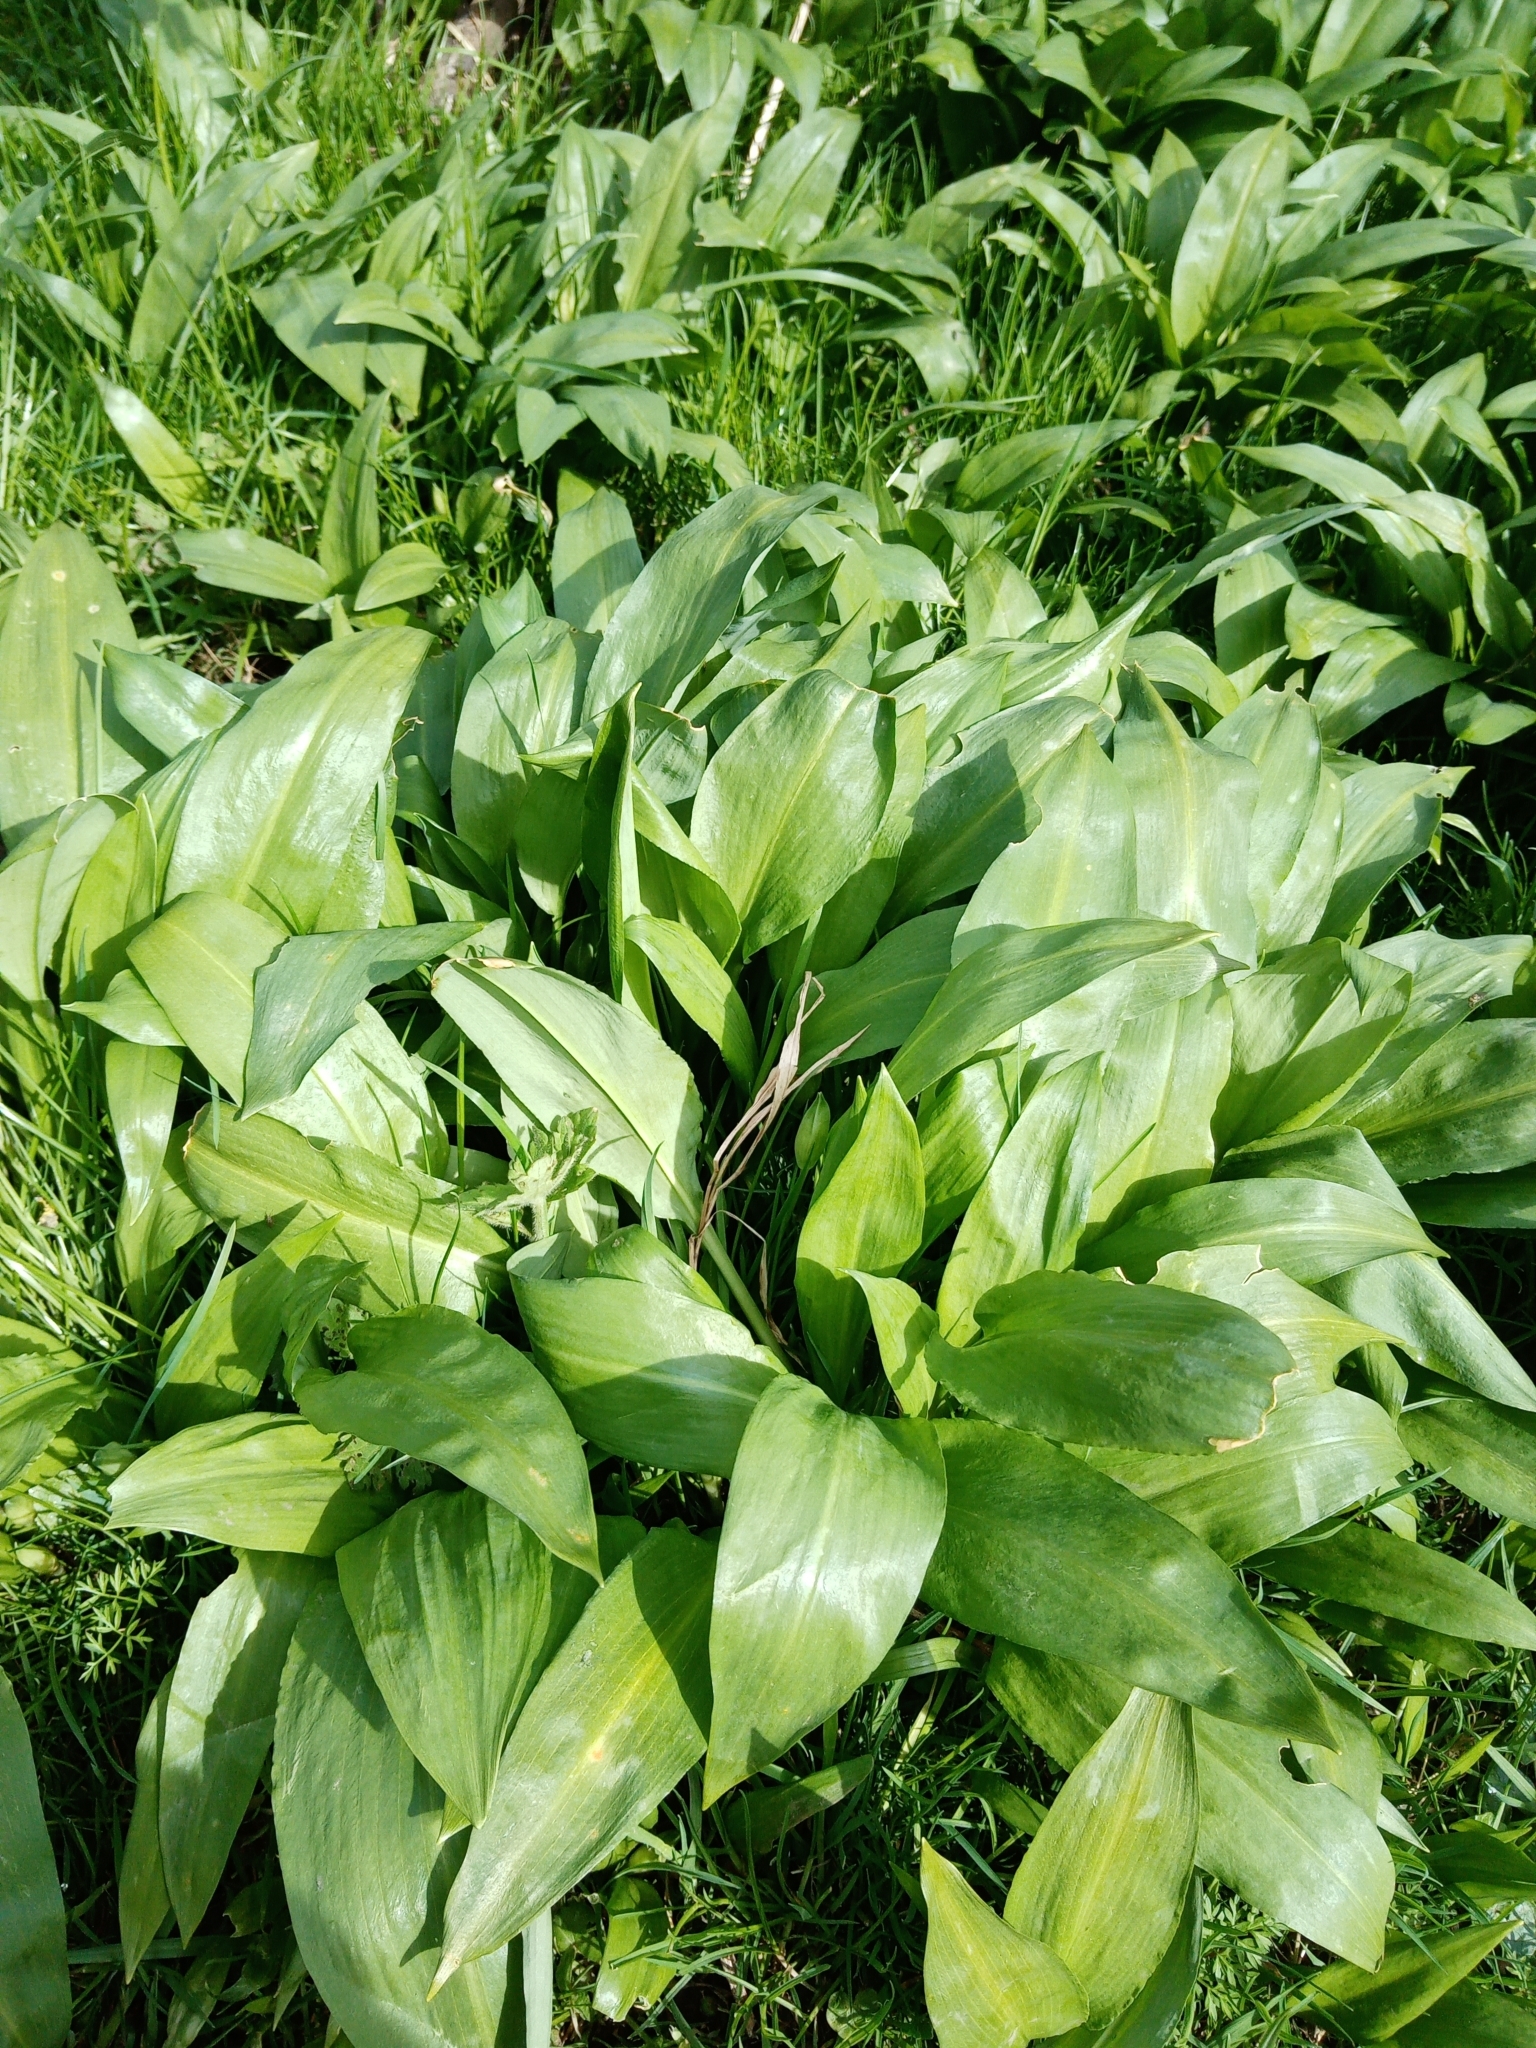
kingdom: Plantae
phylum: Tracheophyta
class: Liliopsida
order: Asparagales
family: Amaryllidaceae
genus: Allium
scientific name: Allium ursinum
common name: Ramsons
